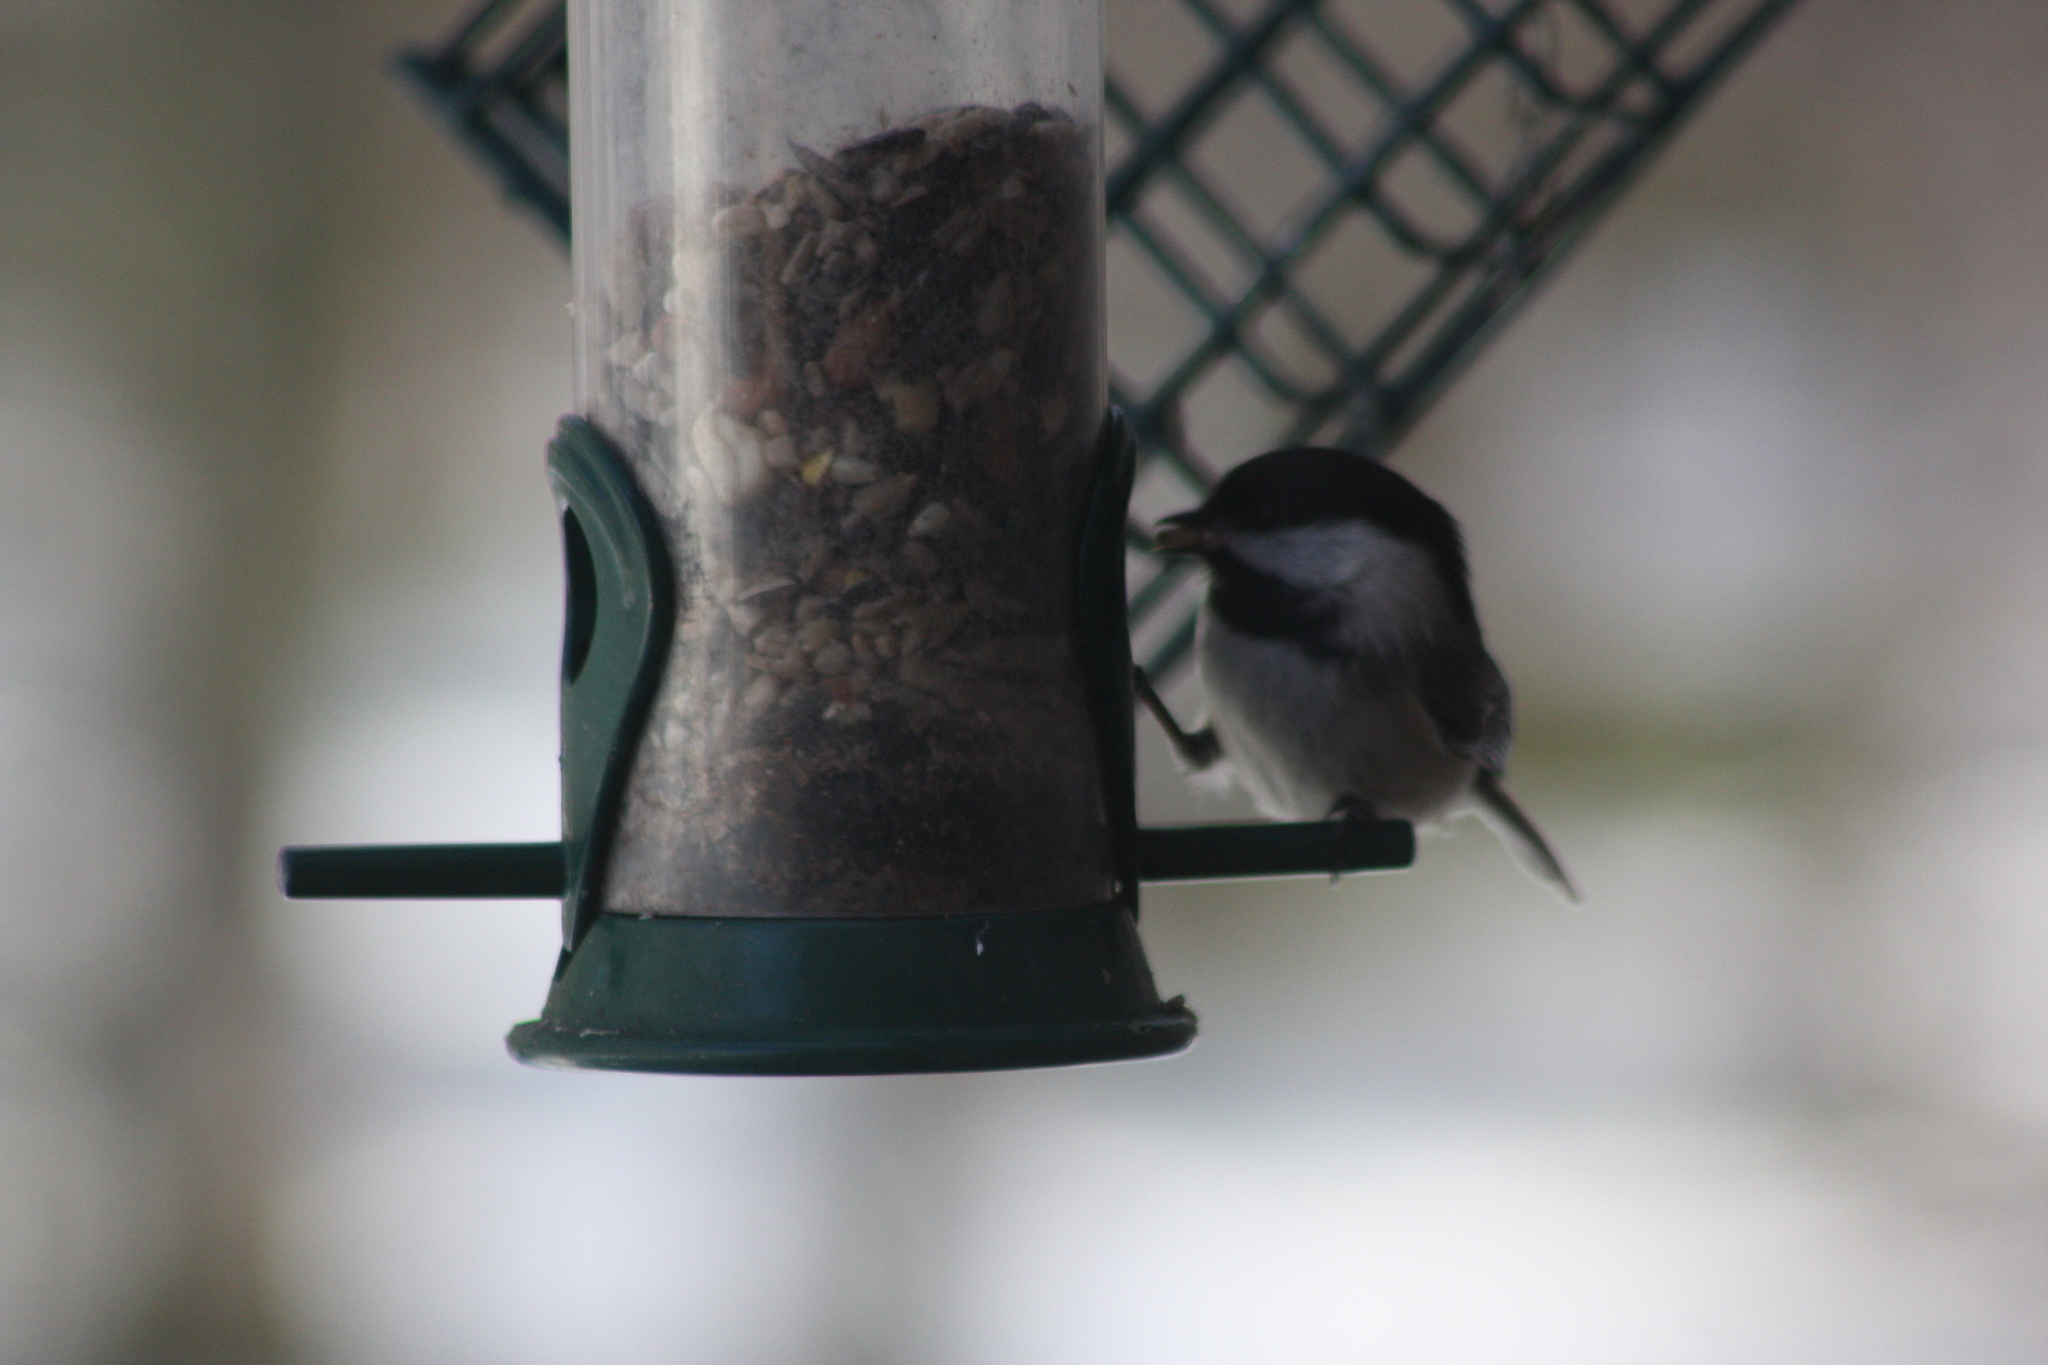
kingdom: Animalia
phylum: Chordata
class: Aves
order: Passeriformes
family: Paridae
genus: Poecile
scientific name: Poecile atricapillus
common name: Black-capped chickadee
